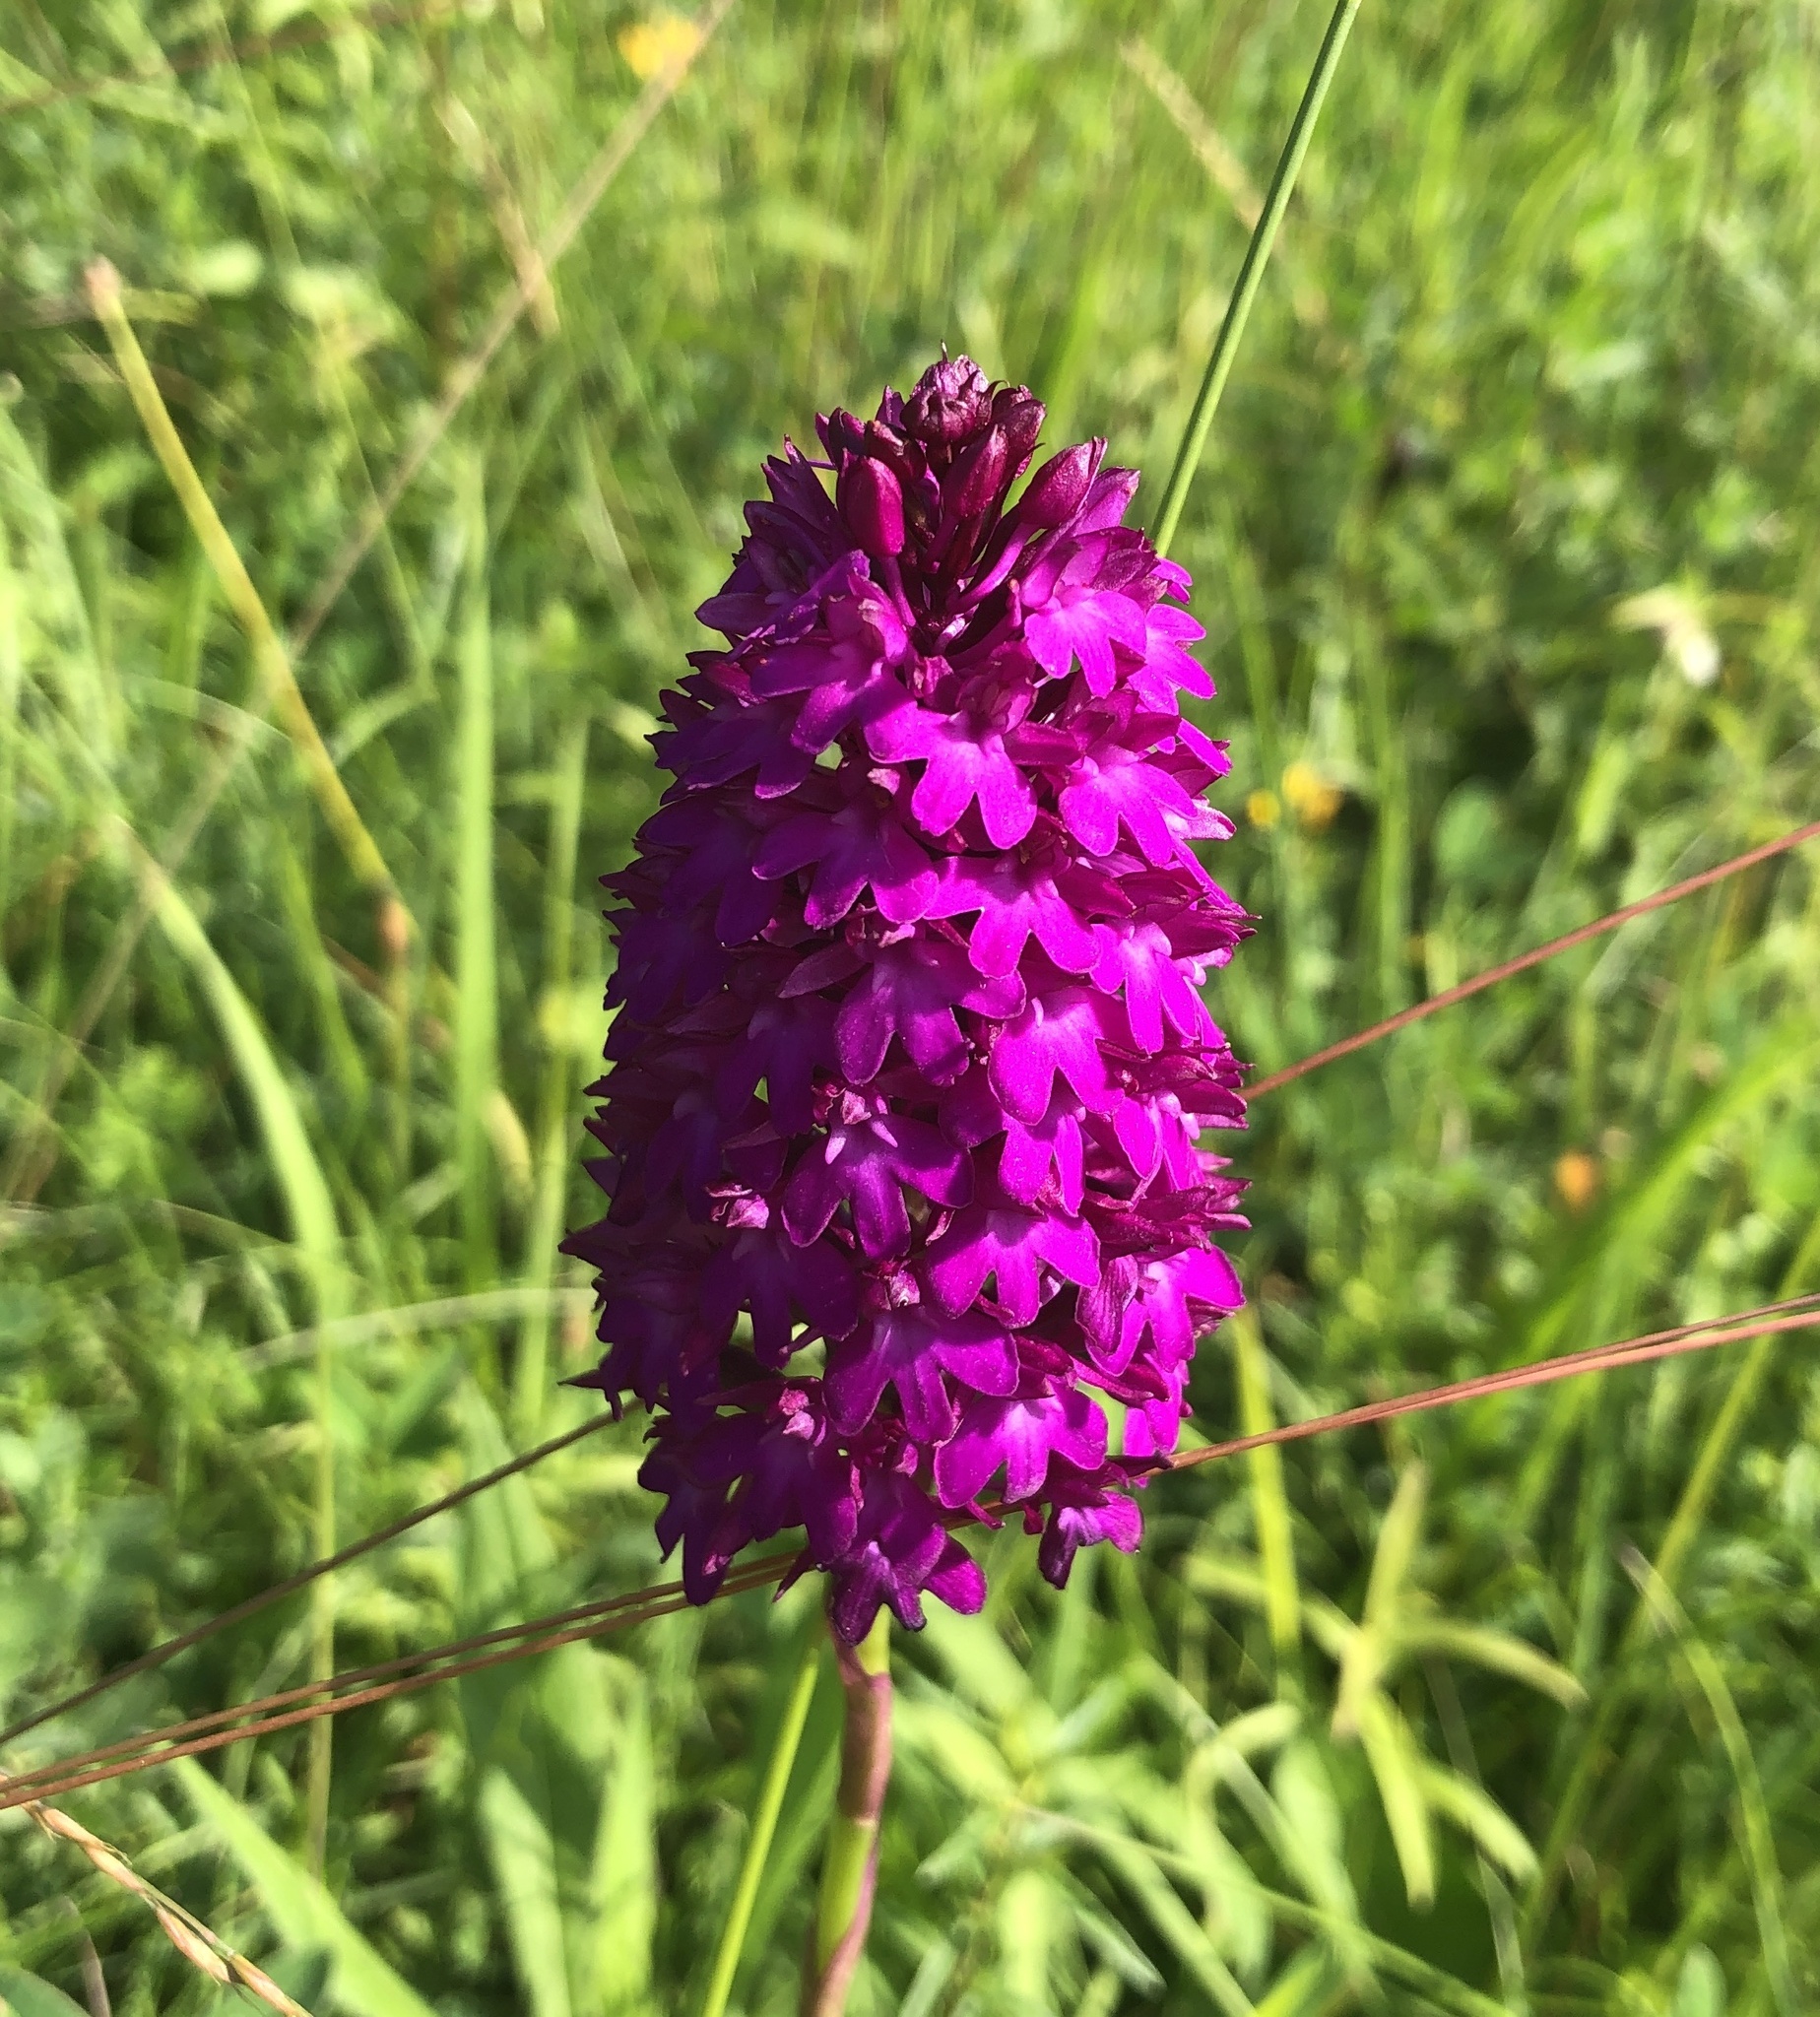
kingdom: Plantae
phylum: Tracheophyta
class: Liliopsida
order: Asparagales
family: Orchidaceae
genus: Anacamptis
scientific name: Anacamptis pyramidalis
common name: Pyramidal orchid
